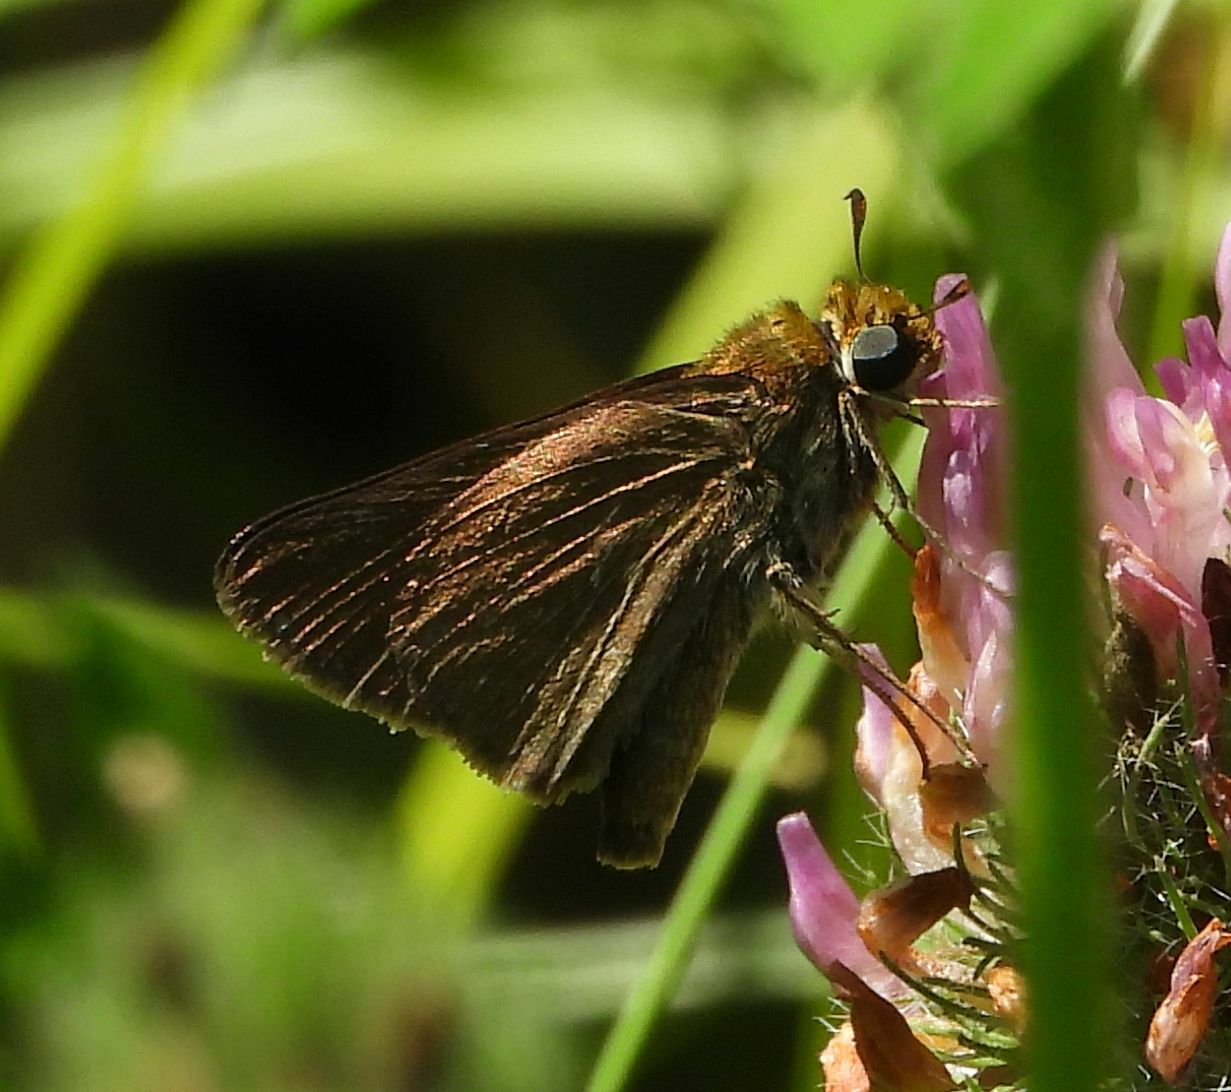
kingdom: Animalia
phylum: Arthropoda
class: Insecta
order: Lepidoptera
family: Hesperiidae
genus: Euphyes
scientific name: Euphyes vestris
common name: Dun skipper
